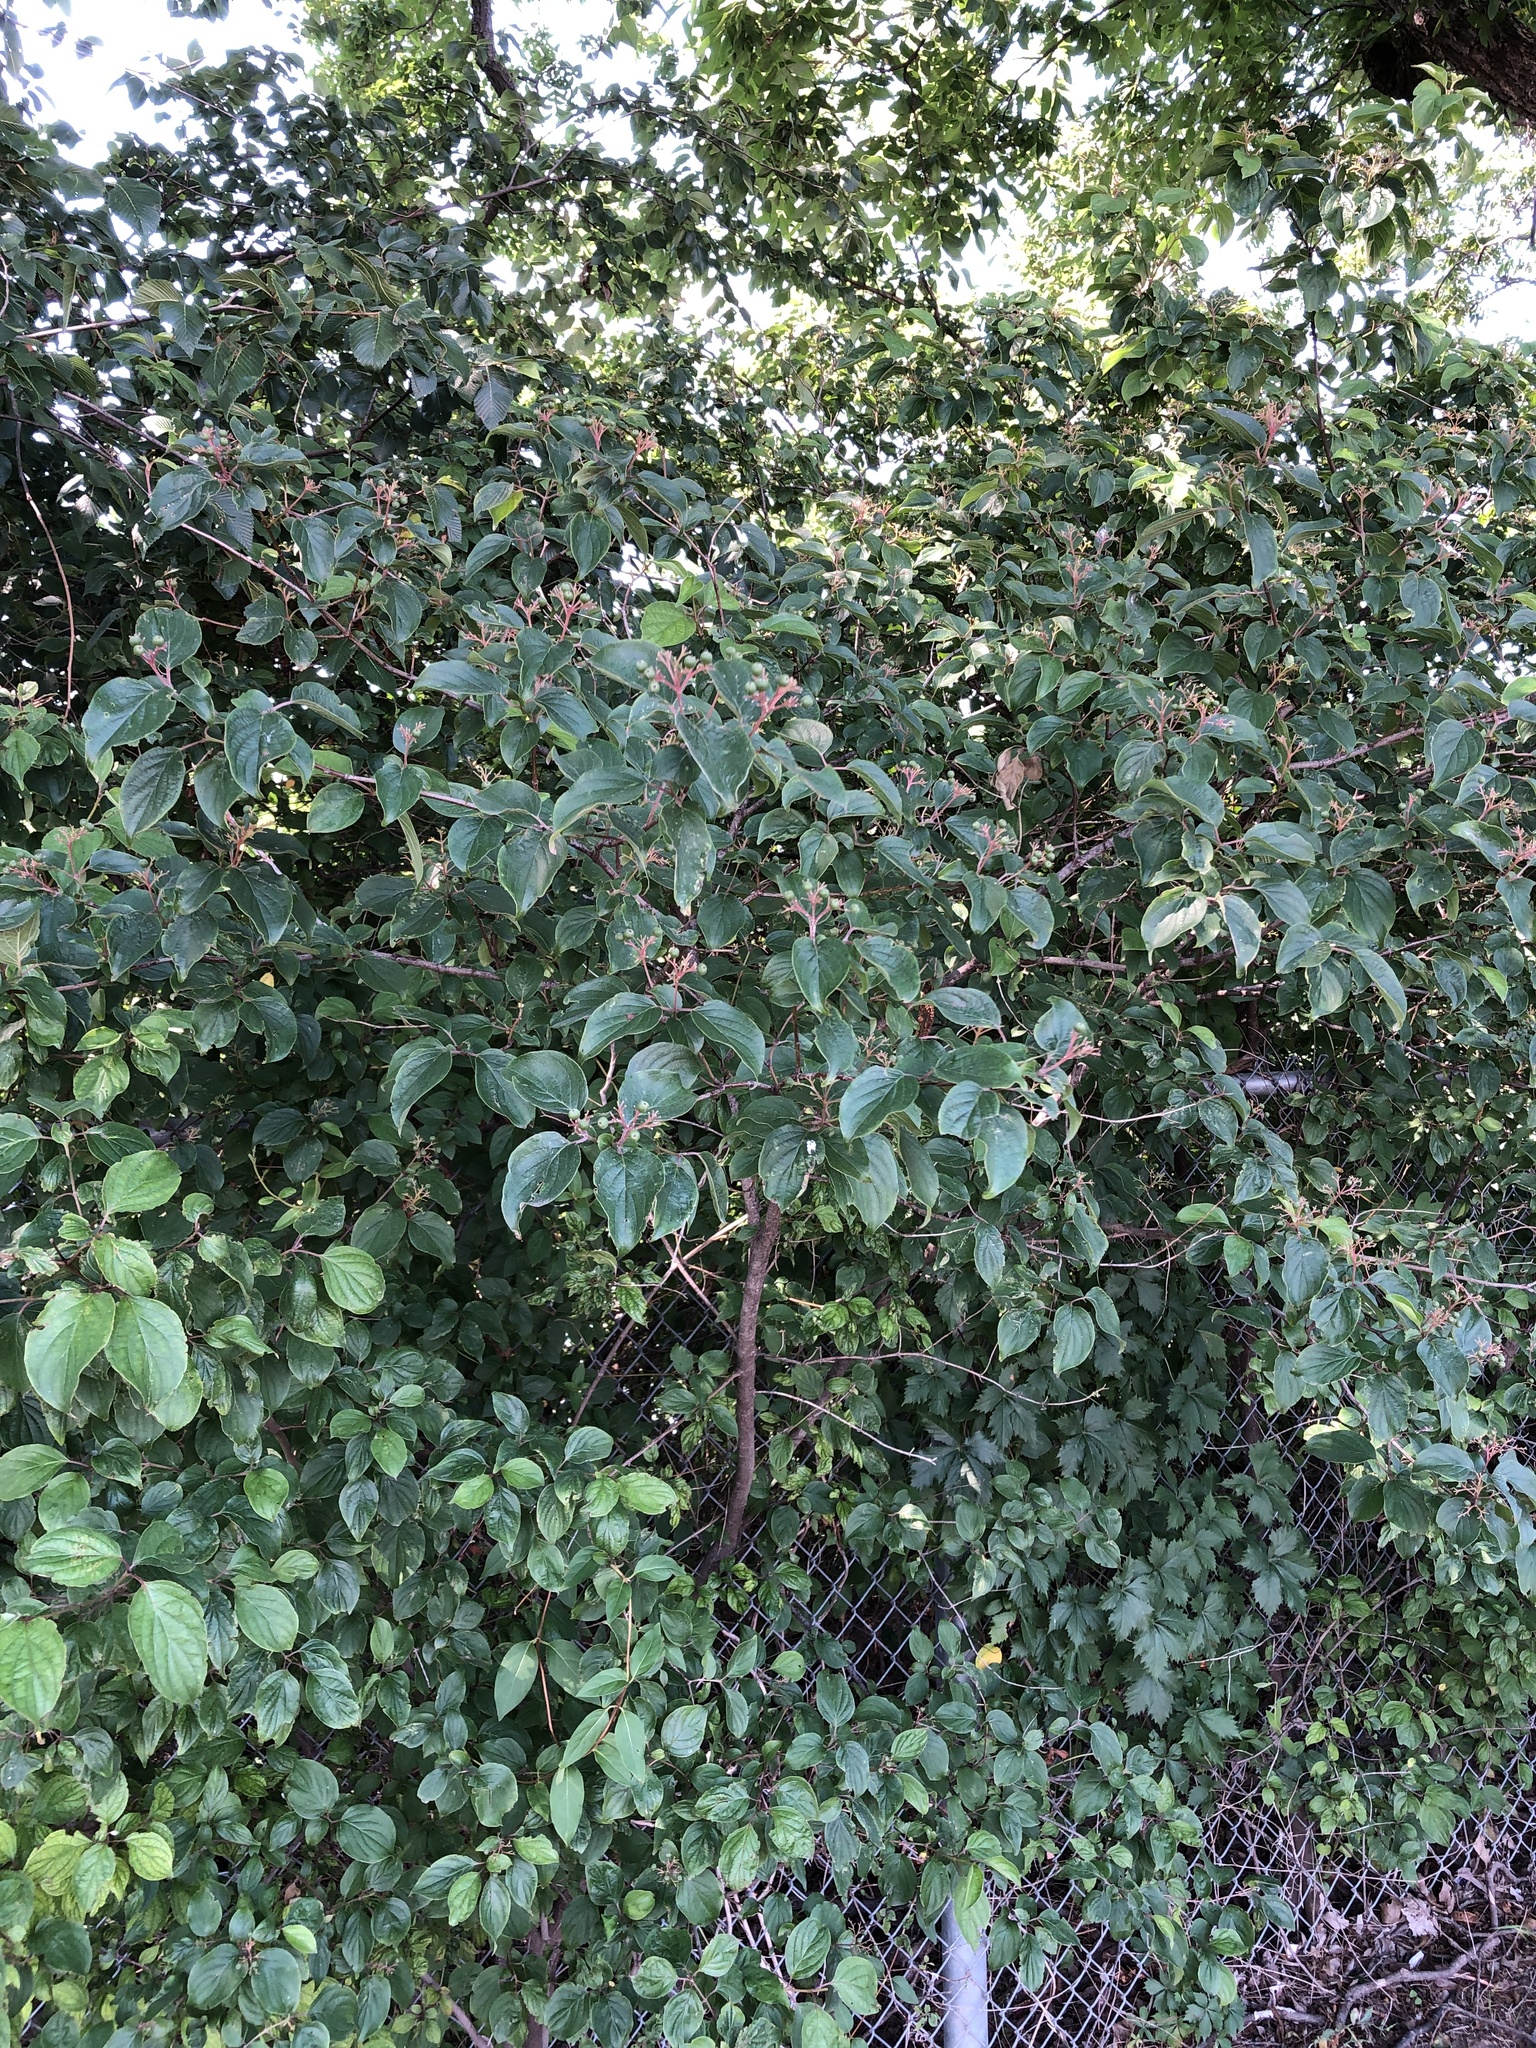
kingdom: Plantae
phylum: Tracheophyta
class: Magnoliopsida
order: Cornales
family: Cornaceae
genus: Cornus
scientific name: Cornus drummondii
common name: Rough-leaf dogwood
